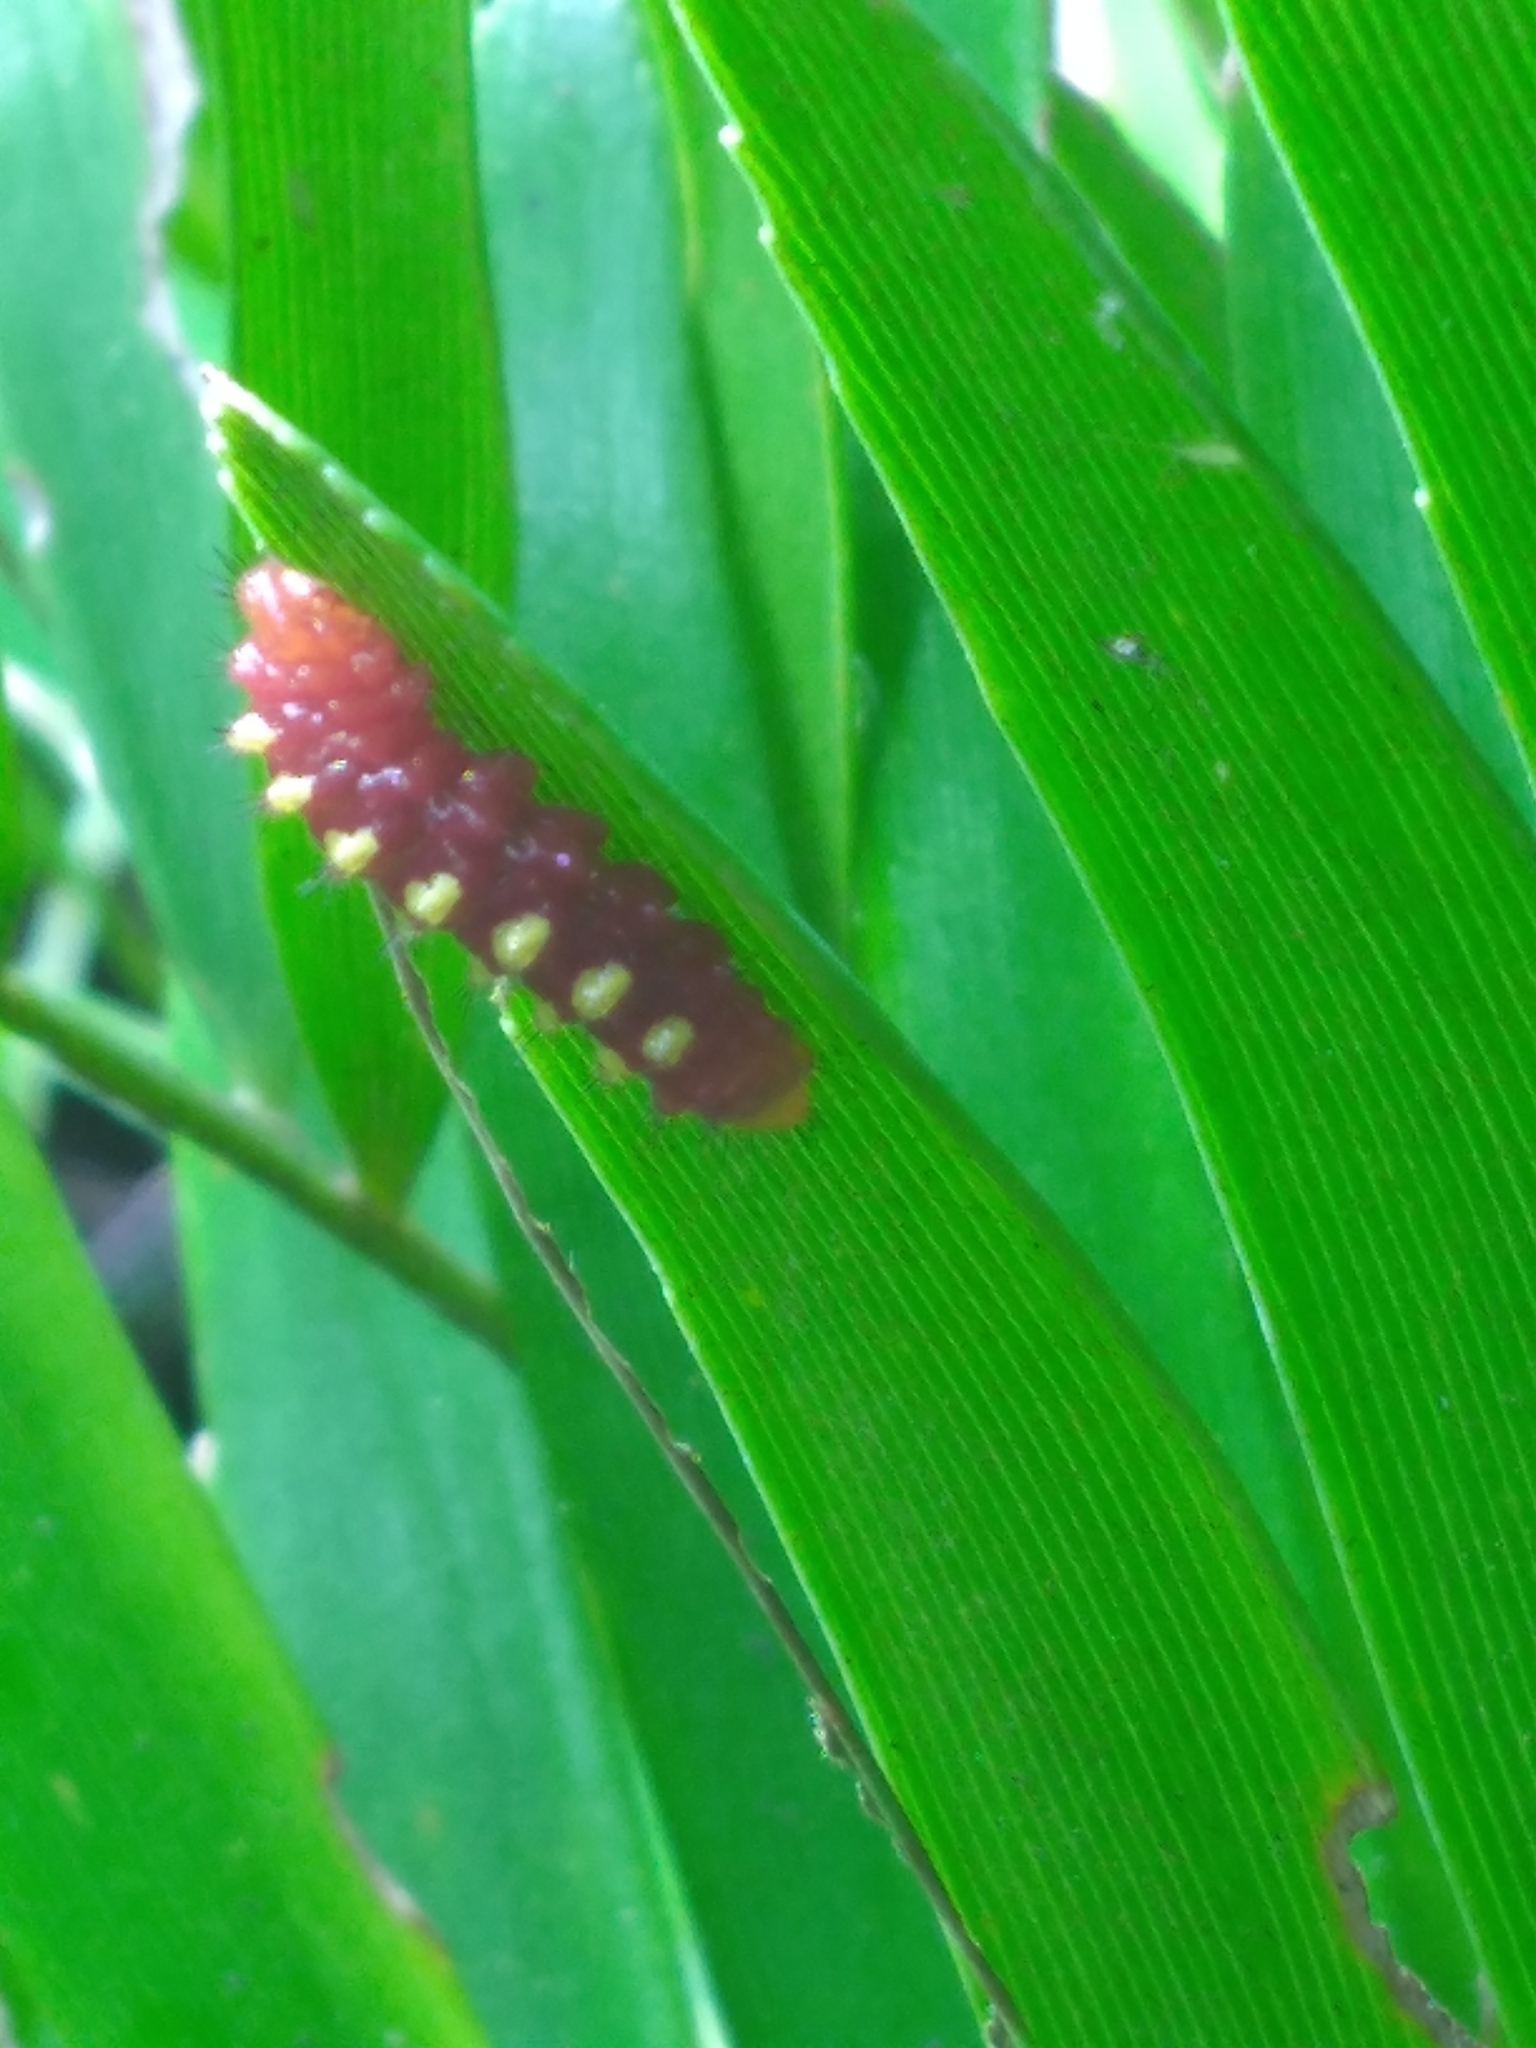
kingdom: Animalia
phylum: Arthropoda
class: Insecta
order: Lepidoptera
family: Lycaenidae
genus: Eumaeus
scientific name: Eumaeus atala
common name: Atala
